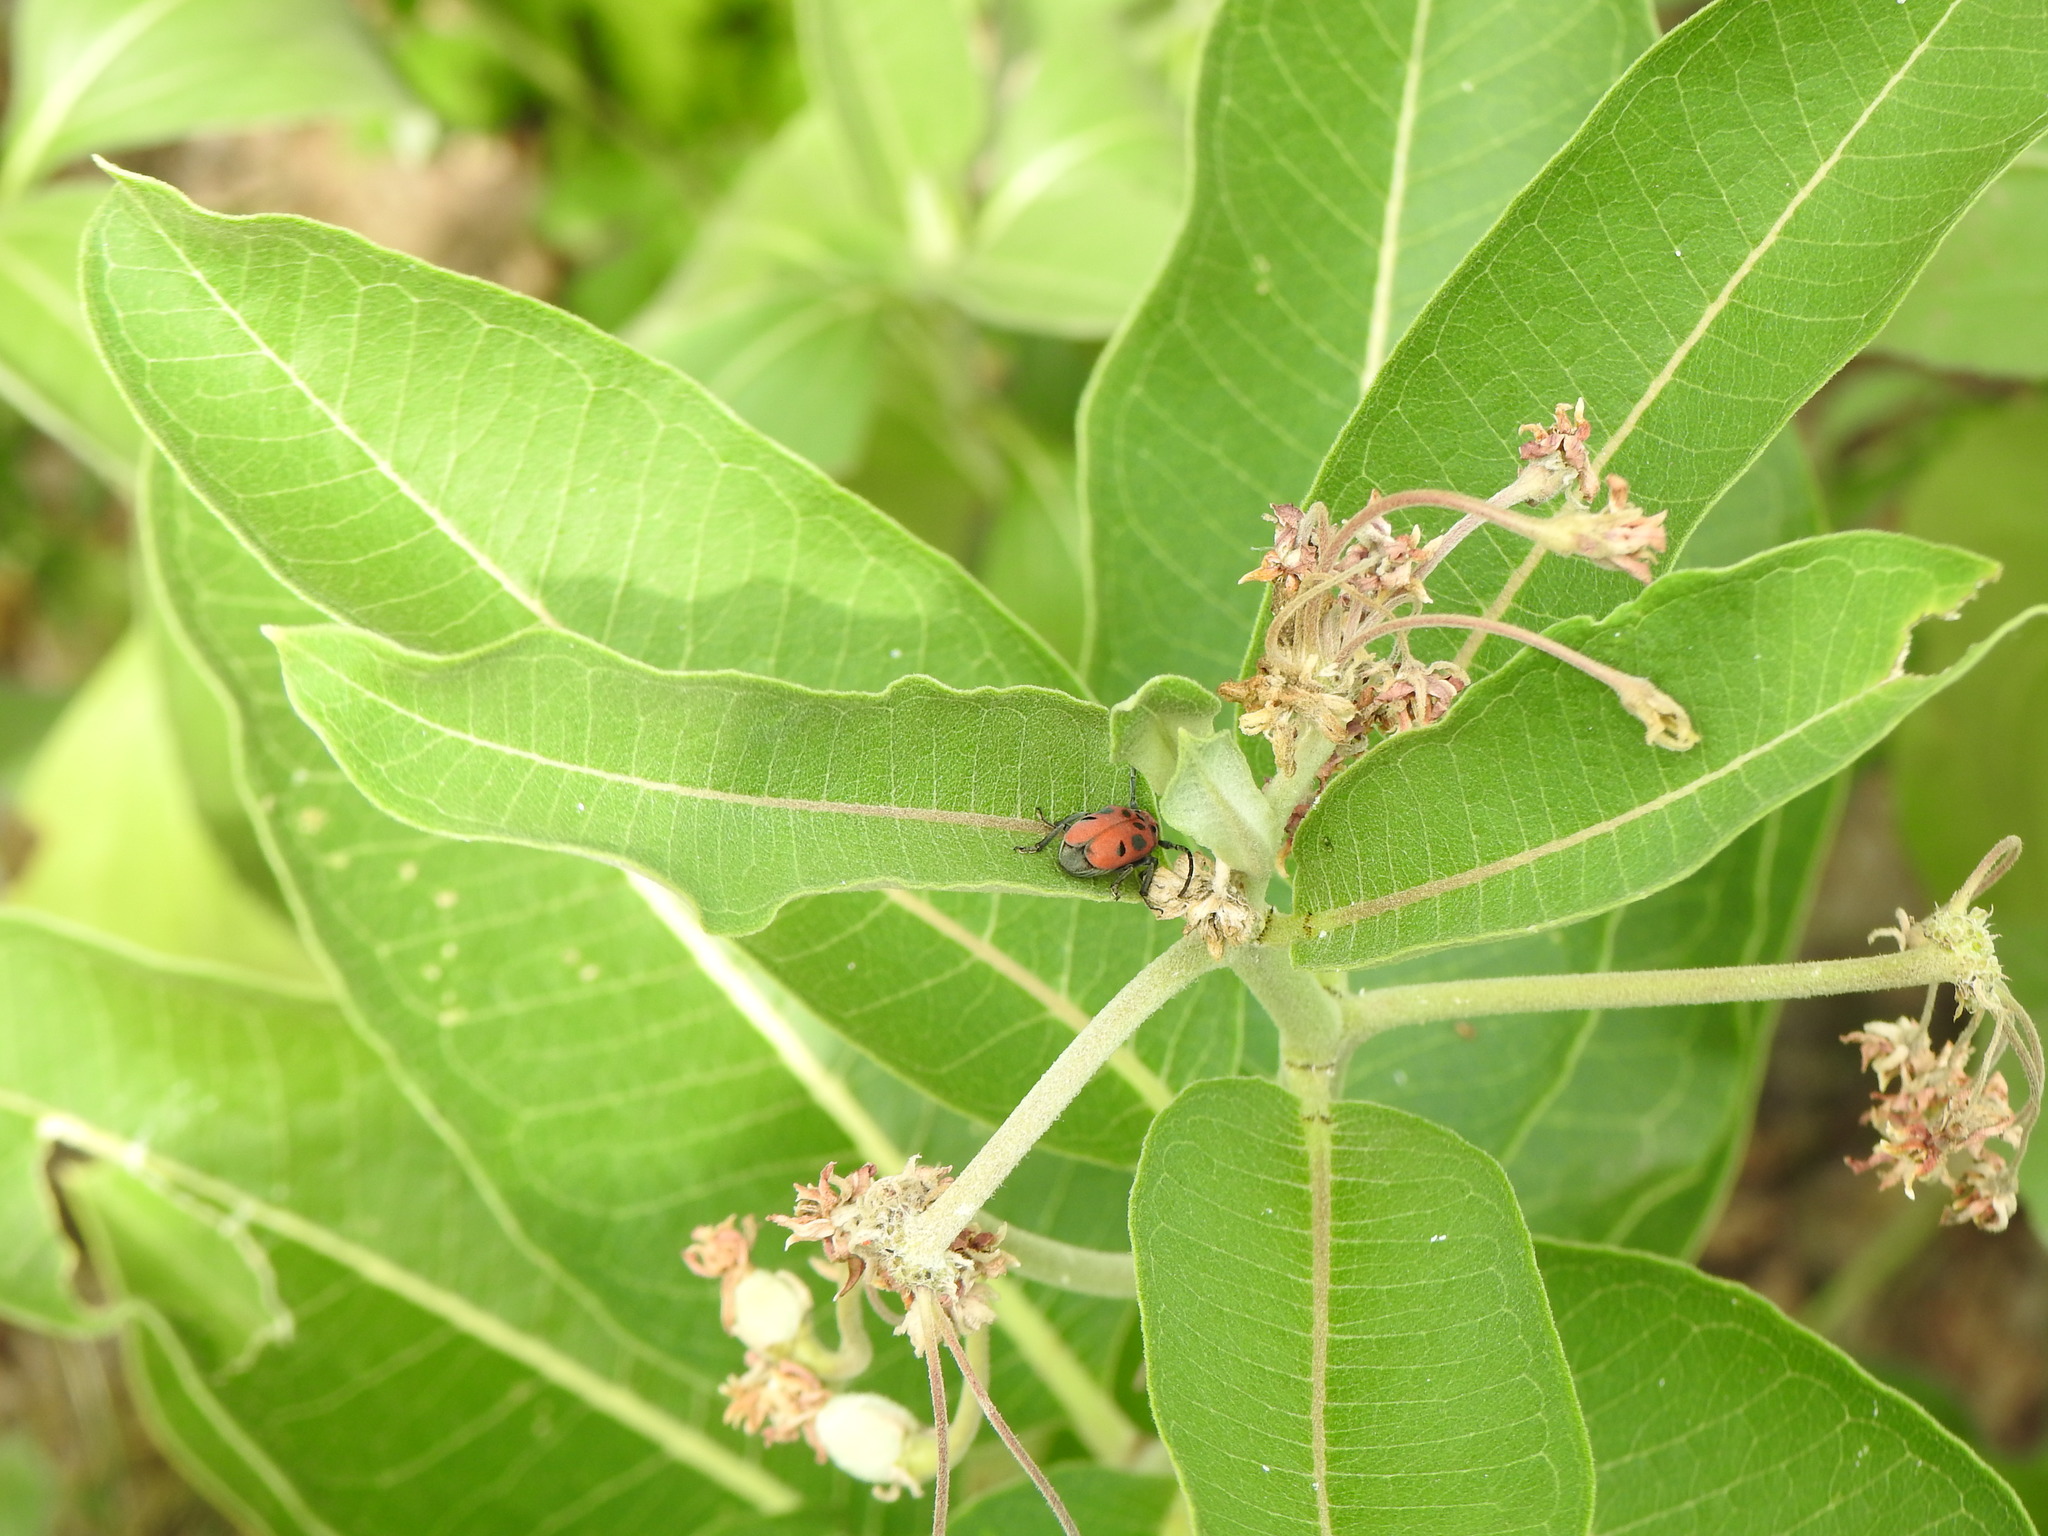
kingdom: Animalia
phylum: Arthropoda
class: Insecta
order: Coleoptera
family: Cerambycidae
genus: Tetraopes
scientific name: Tetraopes tetrophthalmus
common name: Red milkweed beetle
